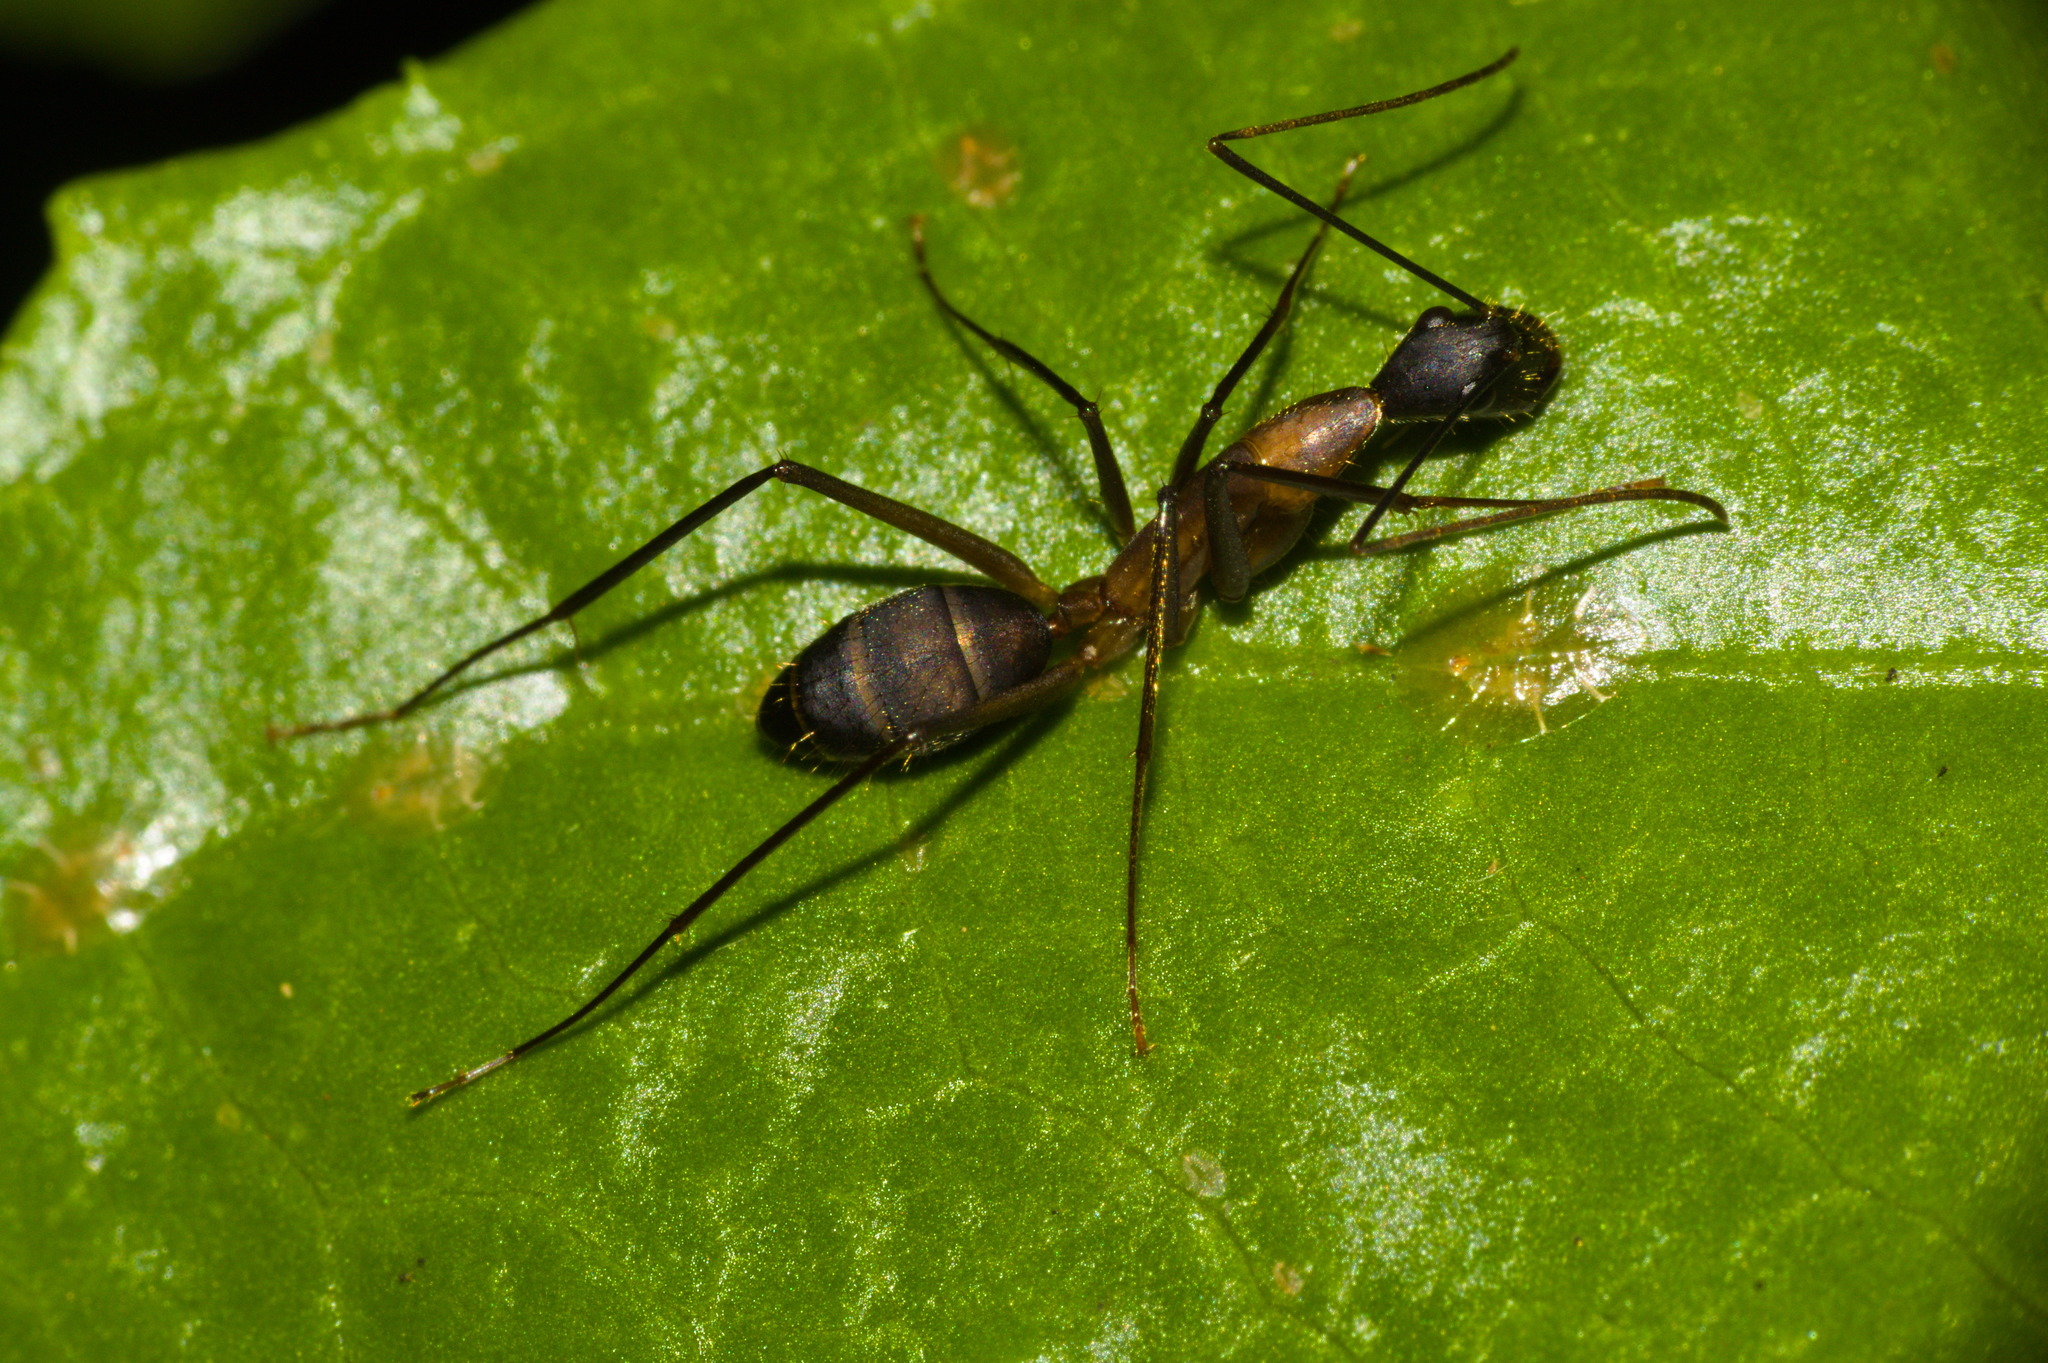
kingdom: Animalia
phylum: Arthropoda
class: Insecta
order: Hymenoptera
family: Formicidae
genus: Camponotus
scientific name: Camponotus lespesii
